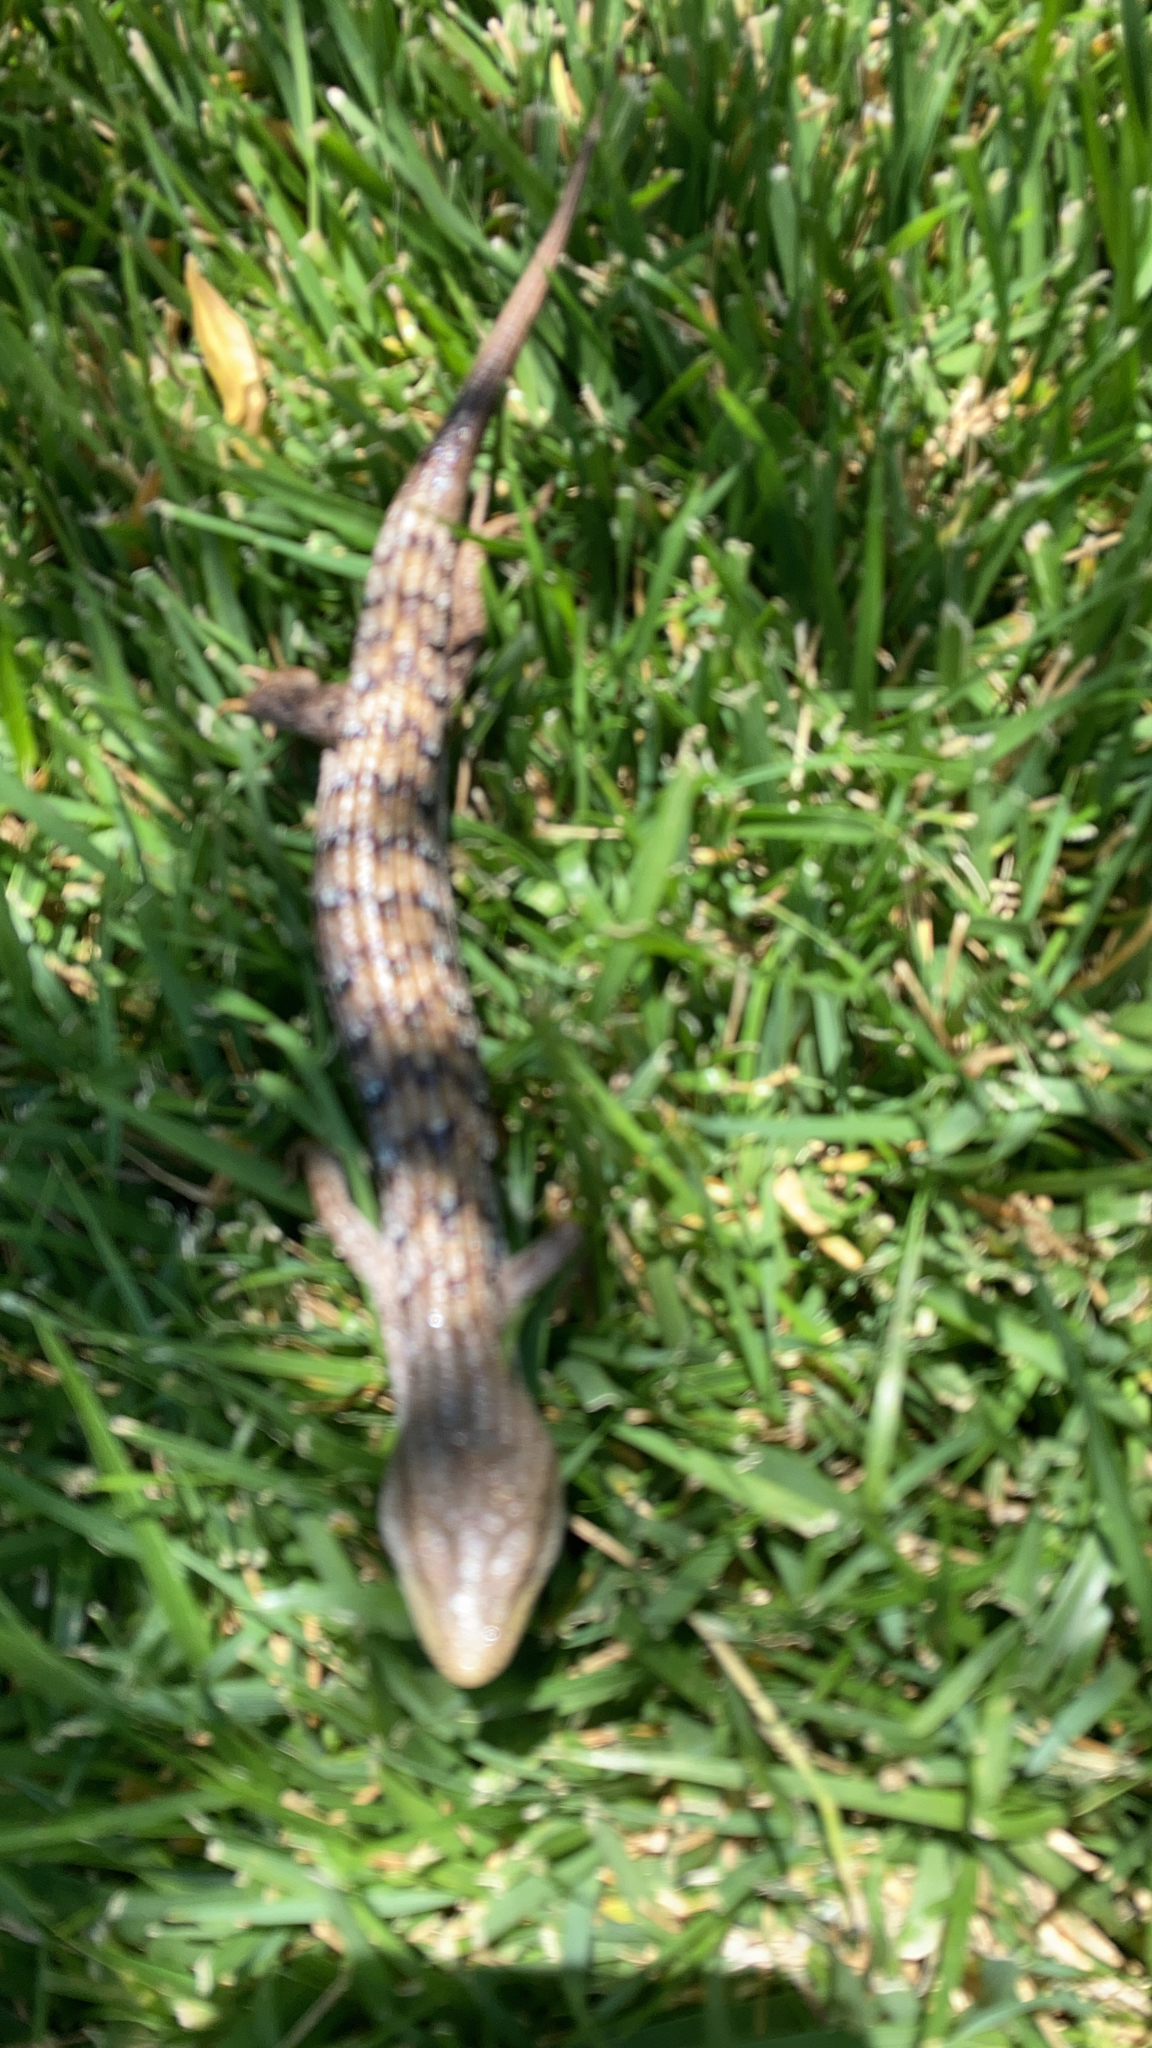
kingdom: Animalia
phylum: Chordata
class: Squamata
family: Anguidae
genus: Elgaria
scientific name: Elgaria multicarinata
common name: Southern alligator lizard
